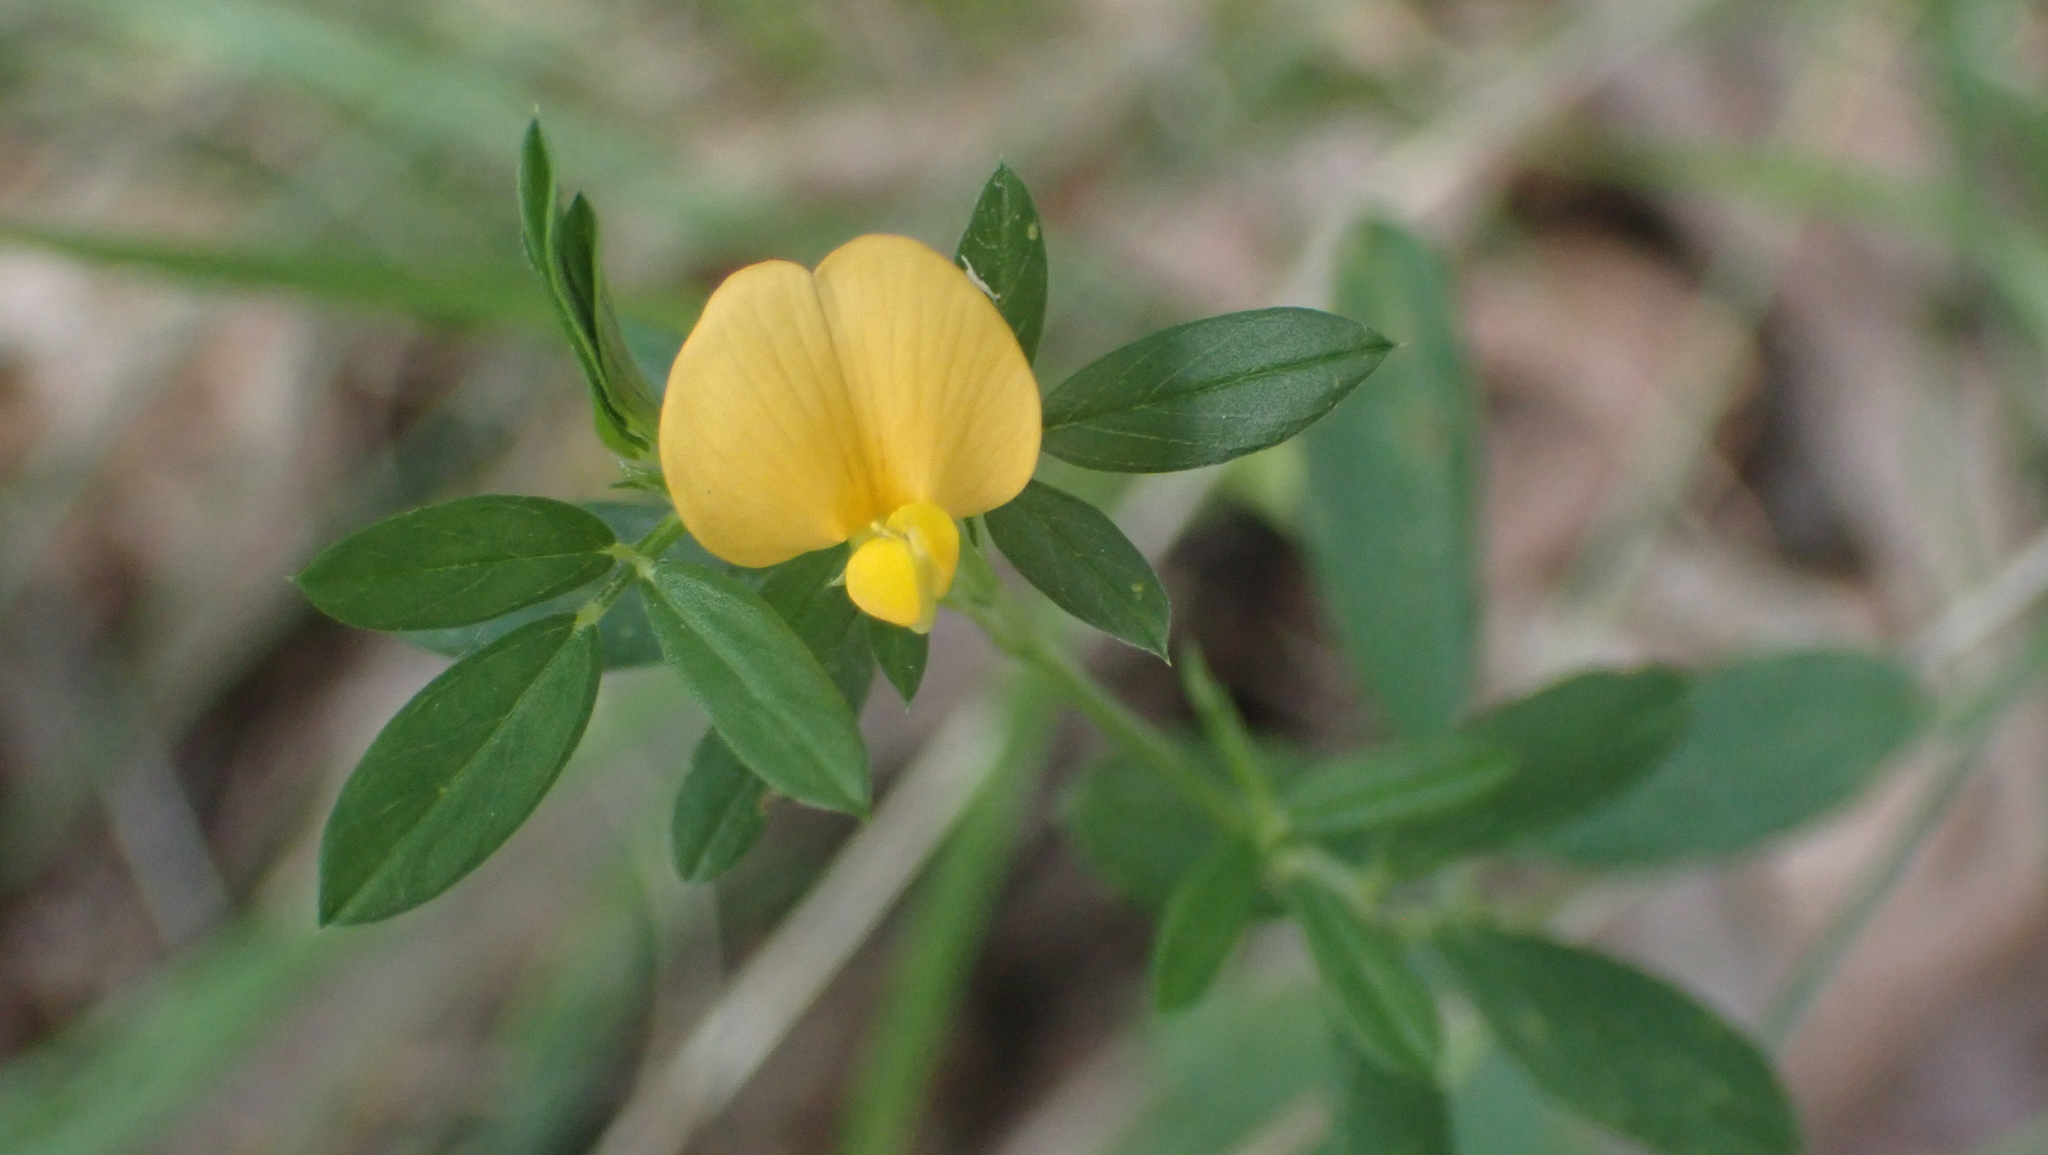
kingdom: Plantae
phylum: Tracheophyta
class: Magnoliopsida
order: Fabales
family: Fabaceae
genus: Stylosanthes
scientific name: Stylosanthes biflora
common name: Two-flower pencil-flower
